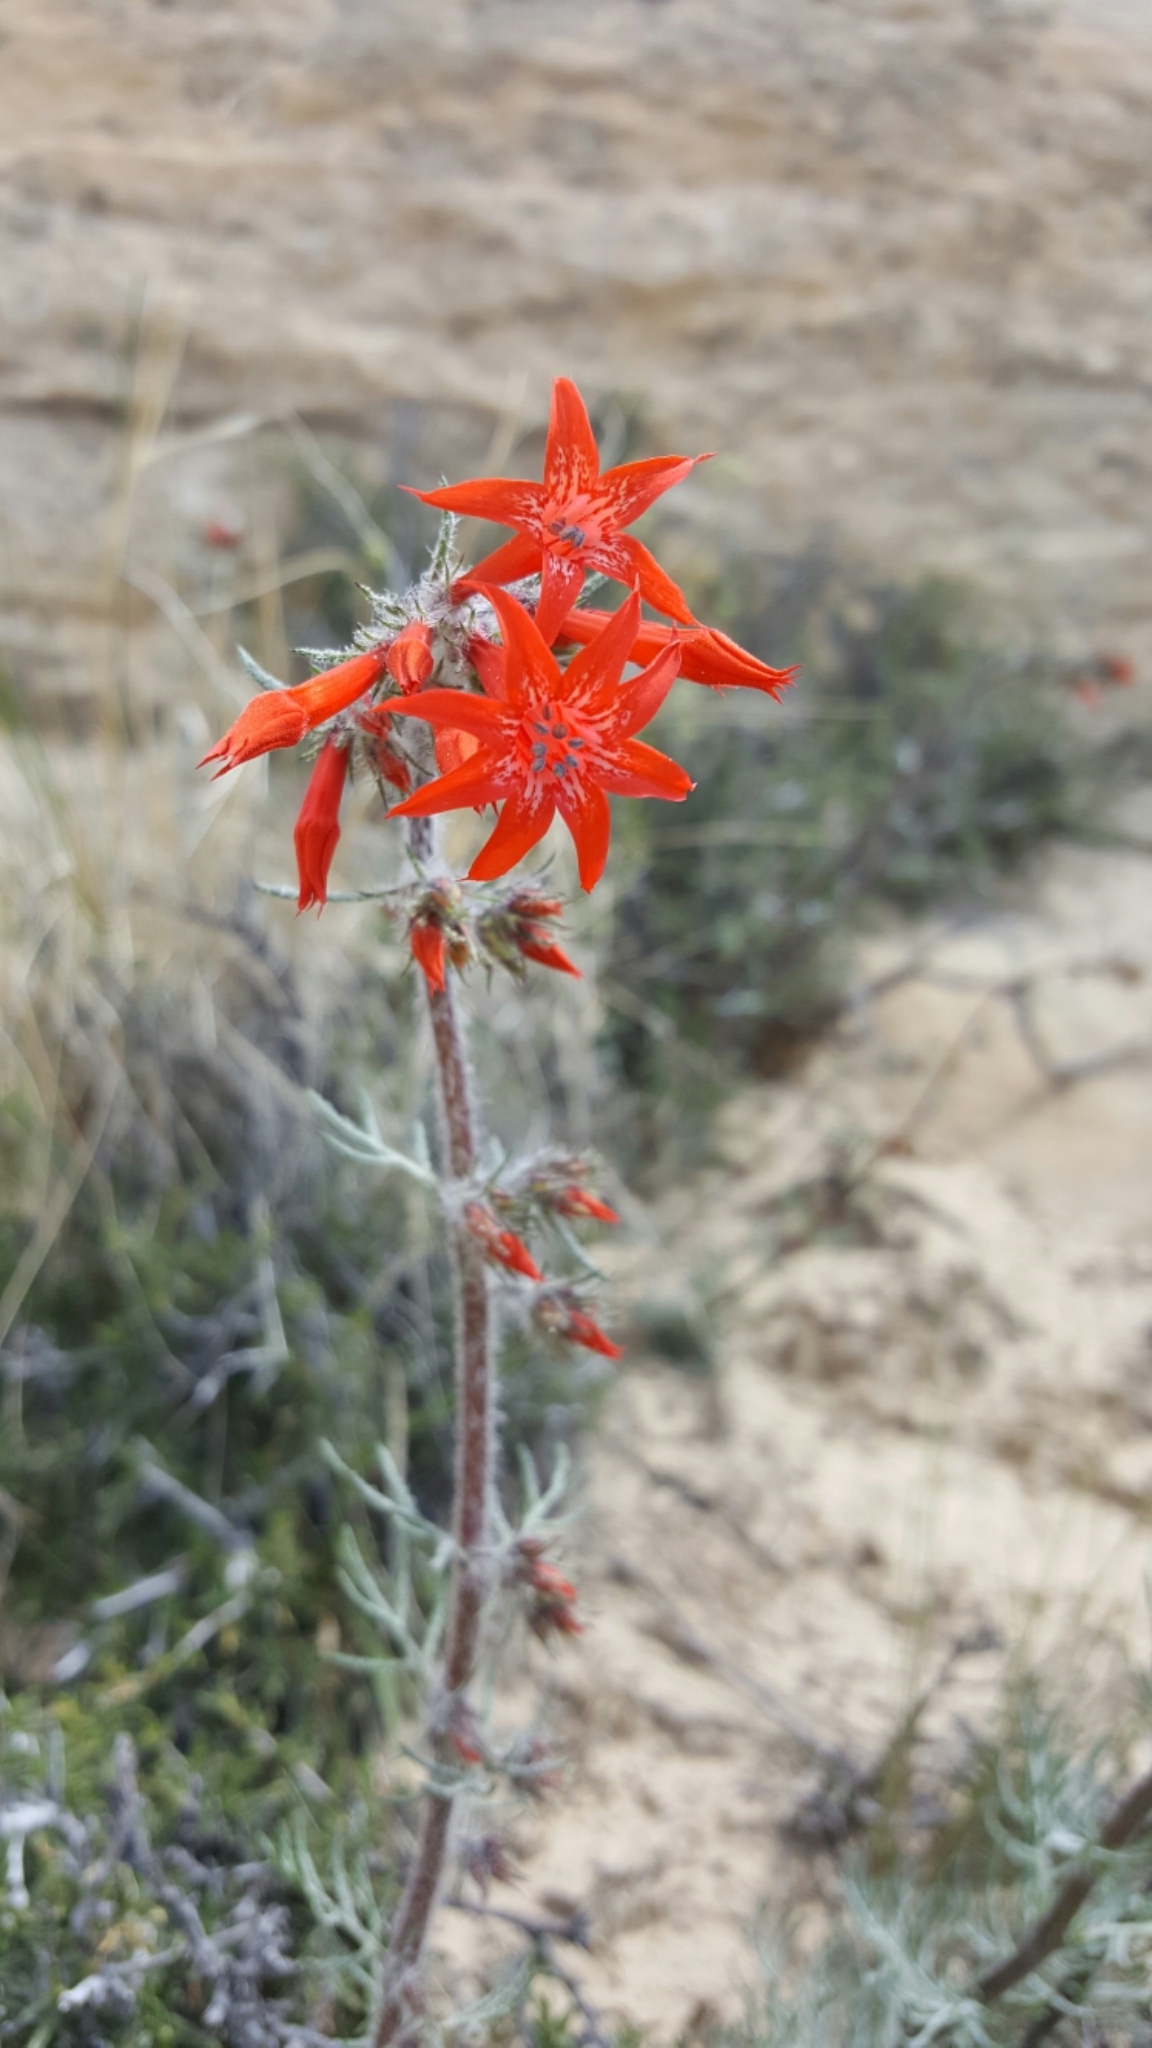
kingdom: Plantae
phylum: Tracheophyta
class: Magnoliopsida
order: Ericales
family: Polemoniaceae
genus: Ipomopsis
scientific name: Ipomopsis aggregata
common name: Scarlet gilia
